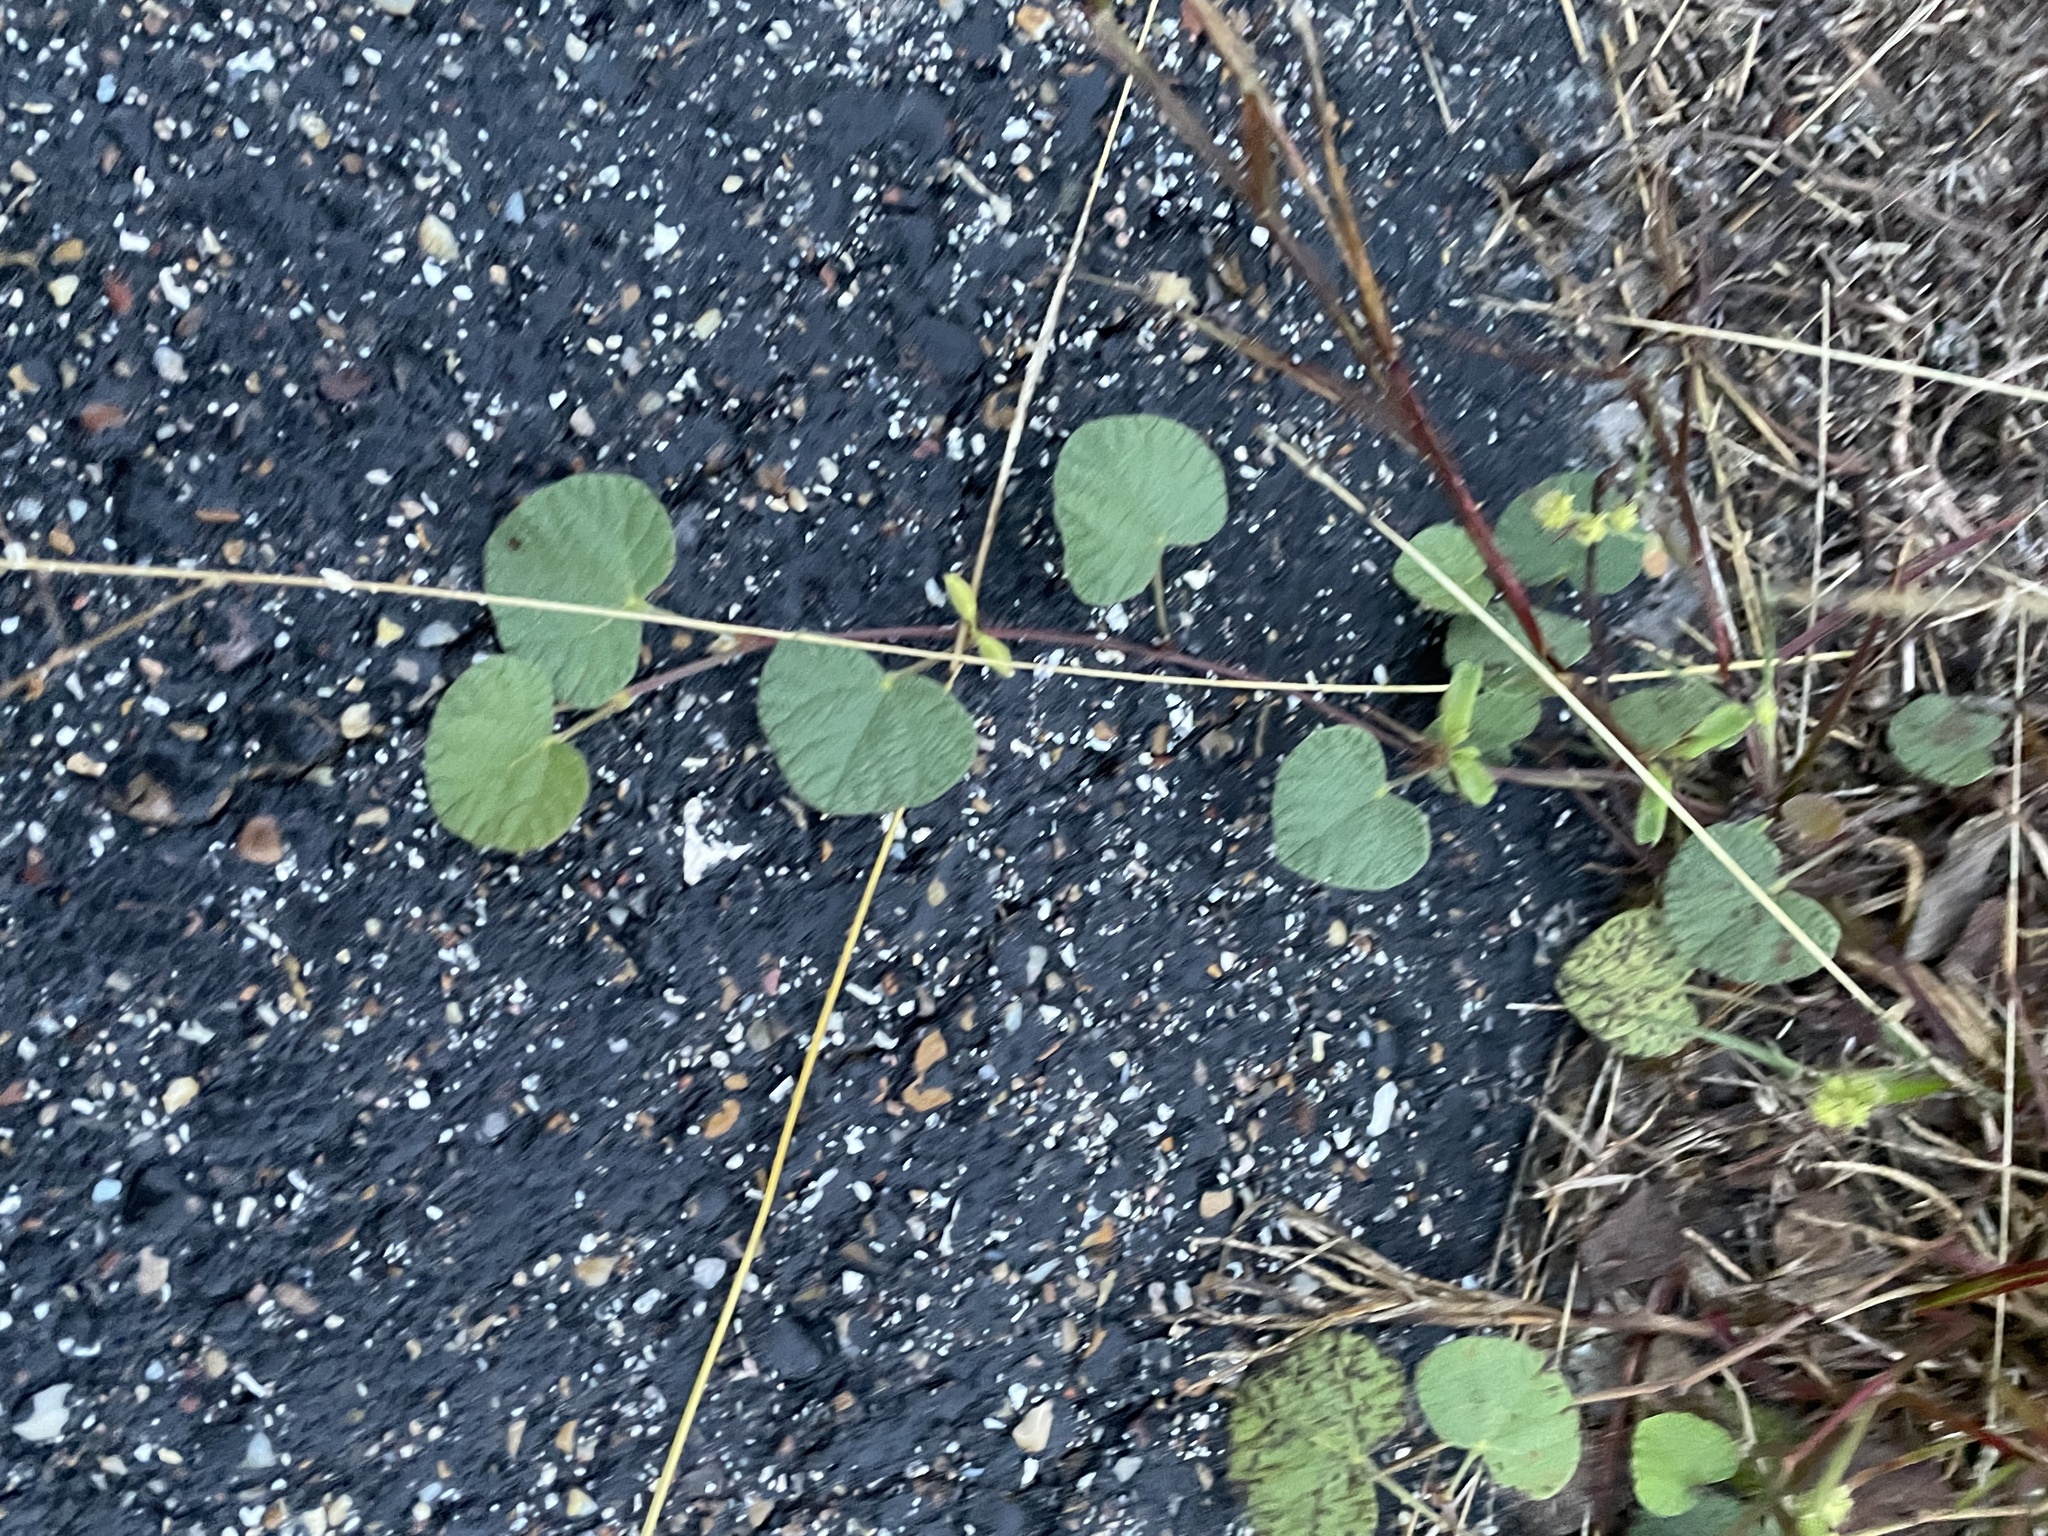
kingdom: Plantae
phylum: Tracheophyta
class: Magnoliopsida
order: Fabales
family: Fabaceae
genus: Rhynchosia
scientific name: Rhynchosia americana
